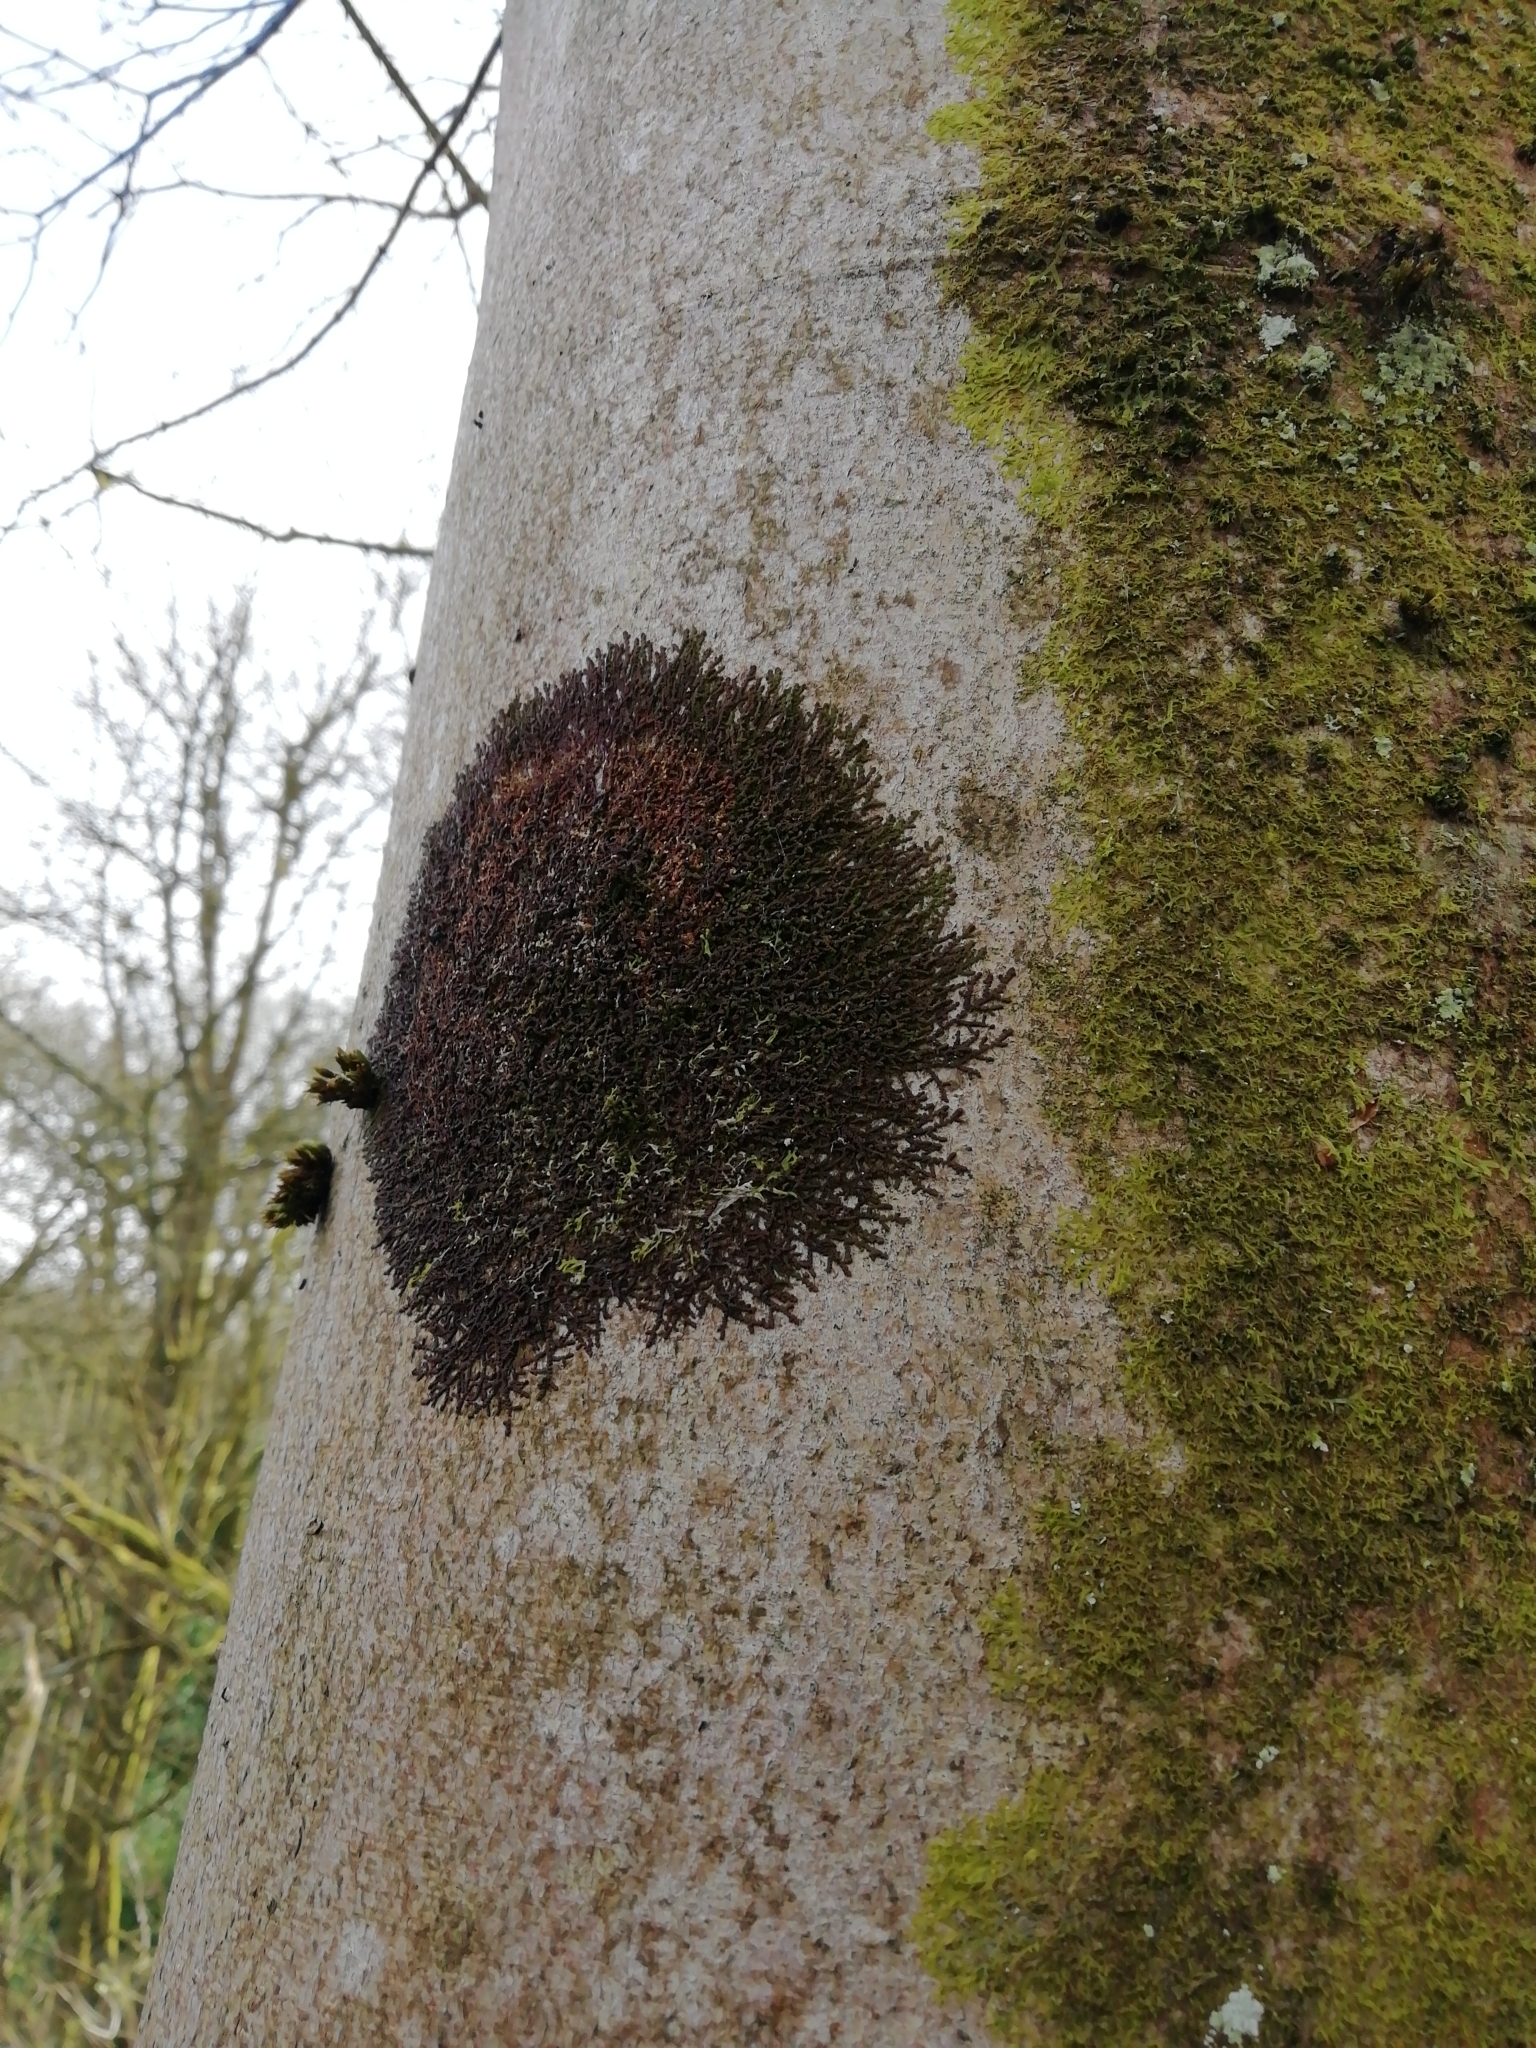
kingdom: Plantae
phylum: Marchantiophyta
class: Jungermanniopsida
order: Porellales
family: Frullaniaceae
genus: Frullania
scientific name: Frullania dilatata
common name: Dilated scalewort
